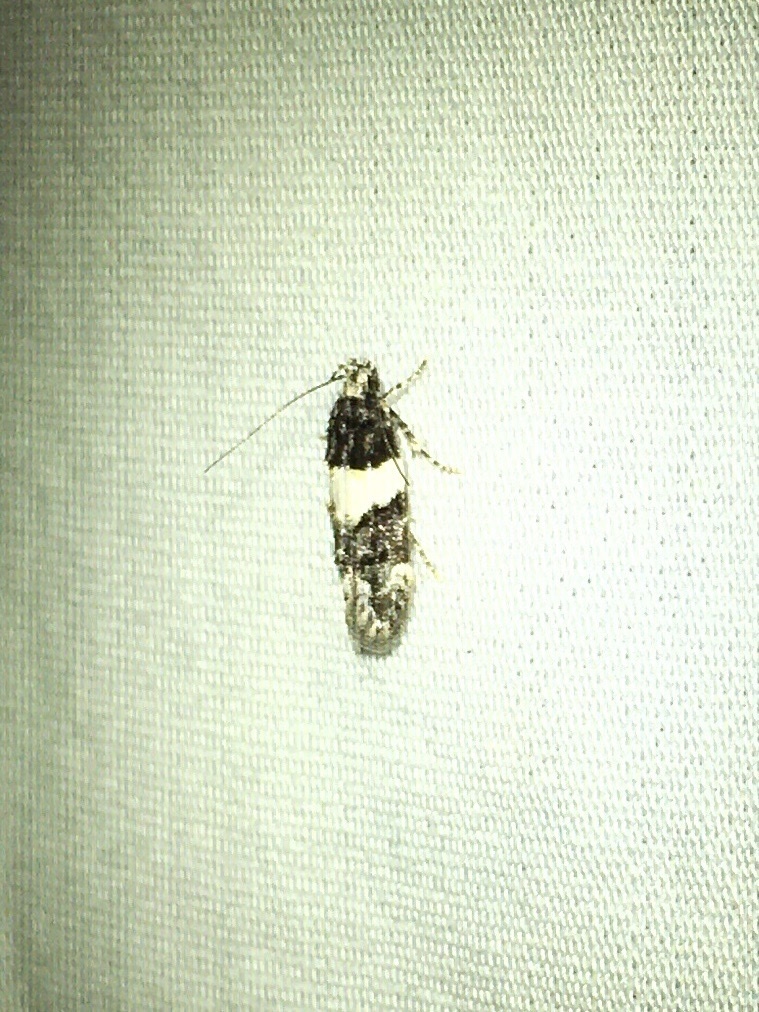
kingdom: Animalia
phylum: Arthropoda
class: Insecta
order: Lepidoptera
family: Gelechiidae
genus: Pubitelphusa
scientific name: Pubitelphusa latifasciella
